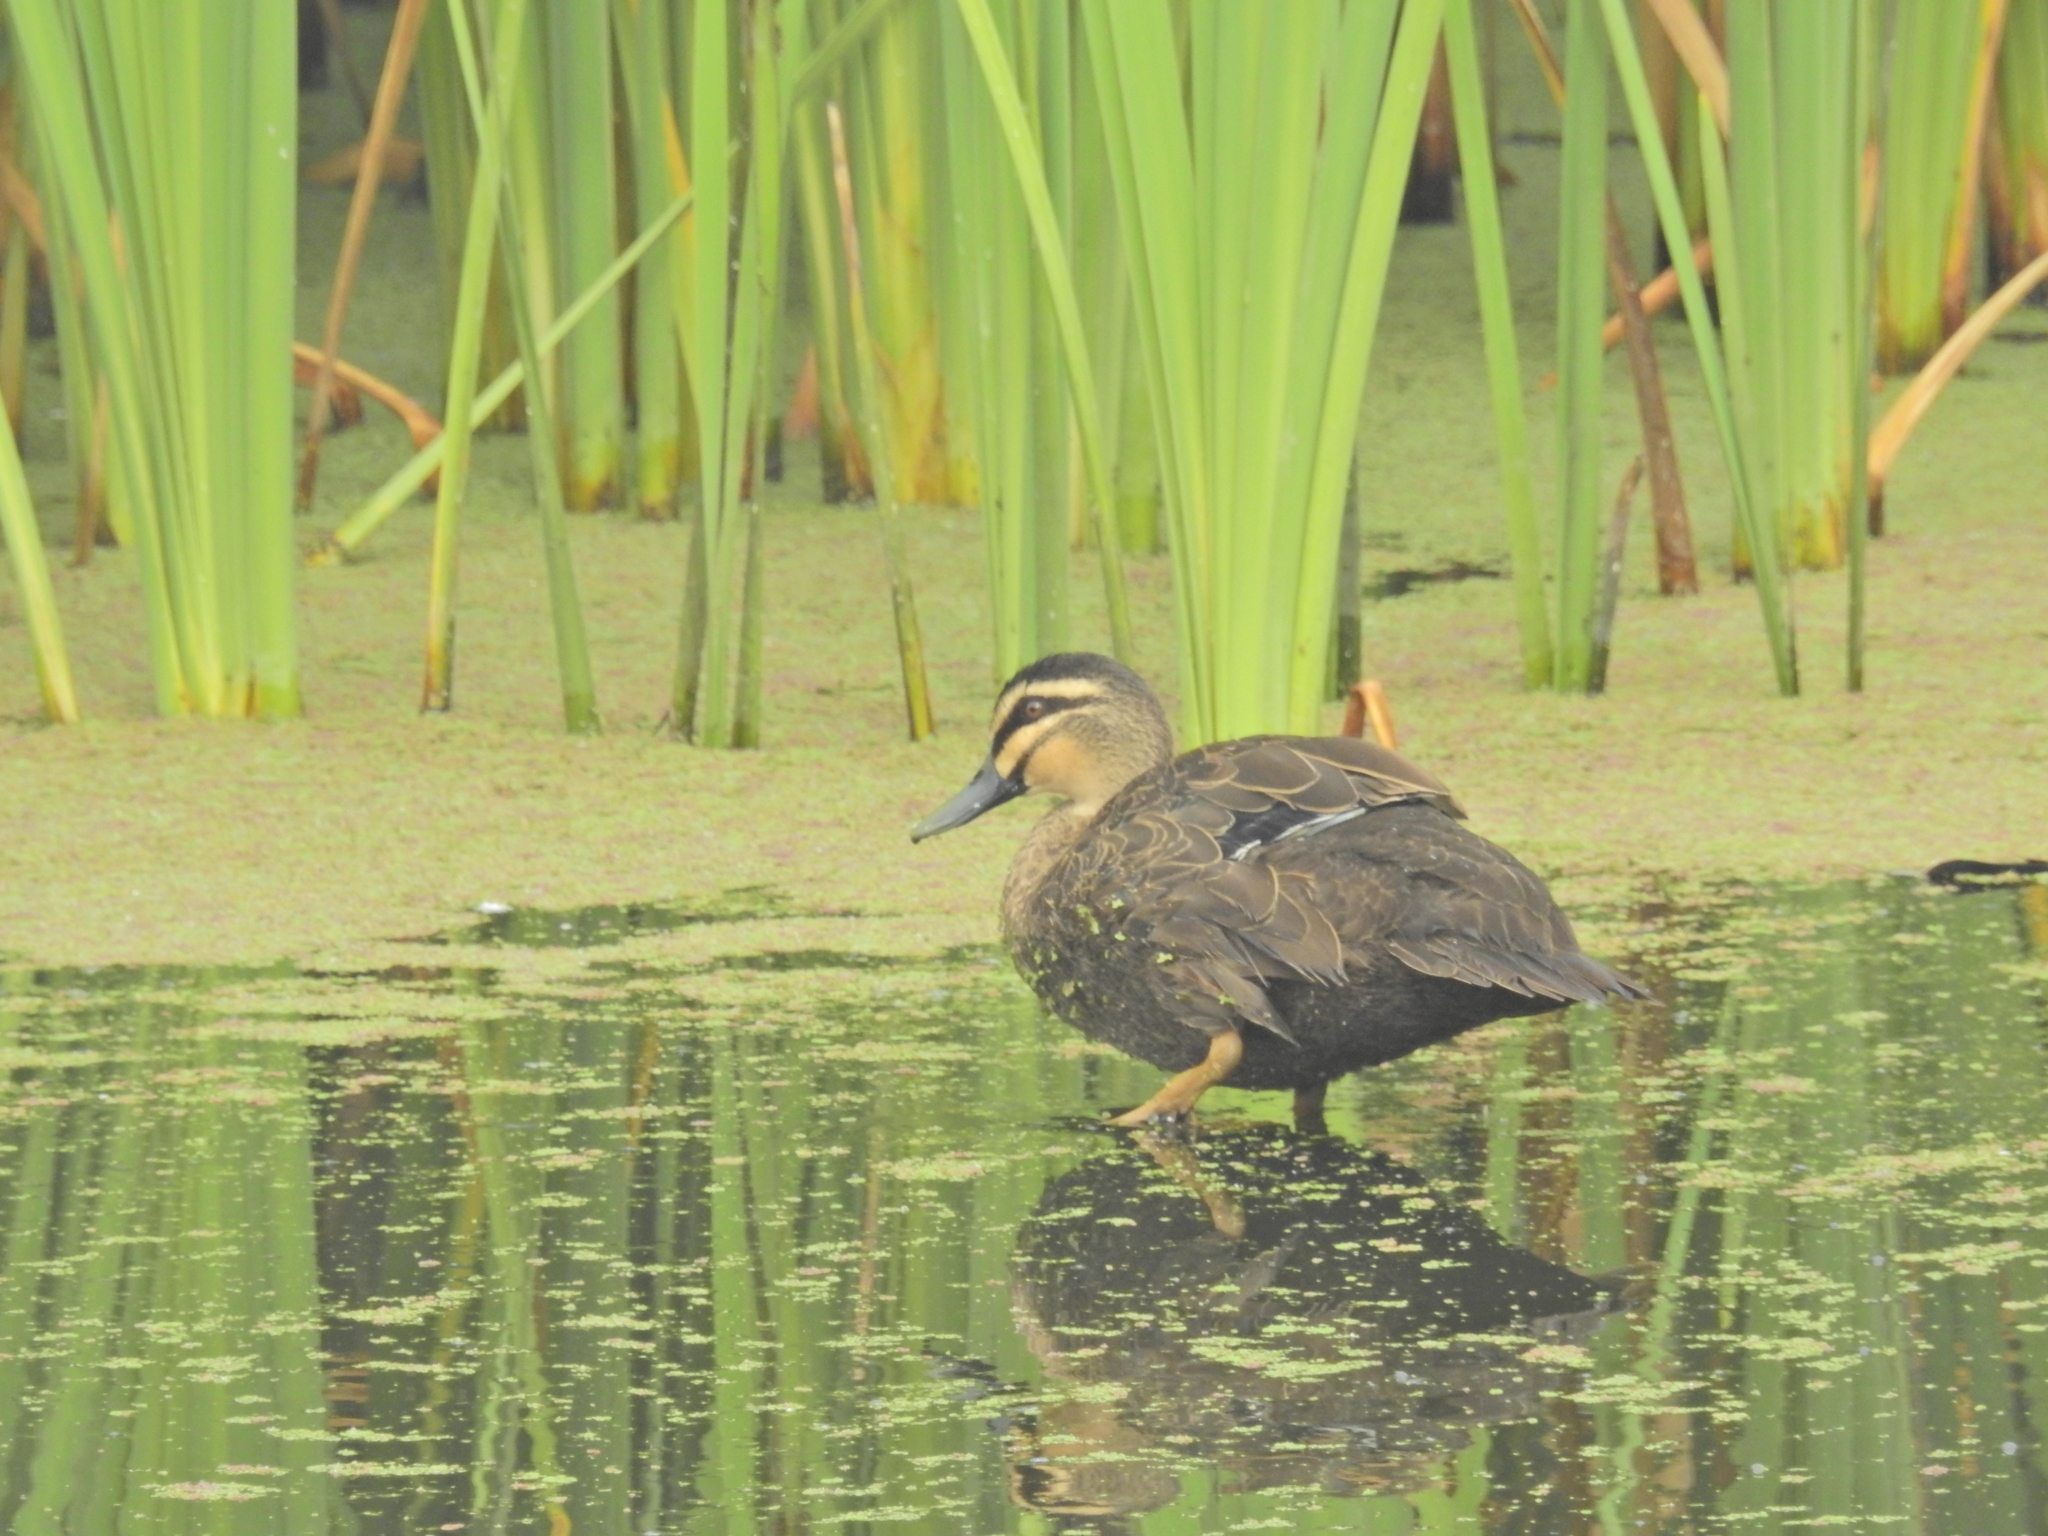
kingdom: Animalia
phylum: Chordata
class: Aves
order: Anseriformes
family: Anatidae
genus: Anas
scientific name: Anas
